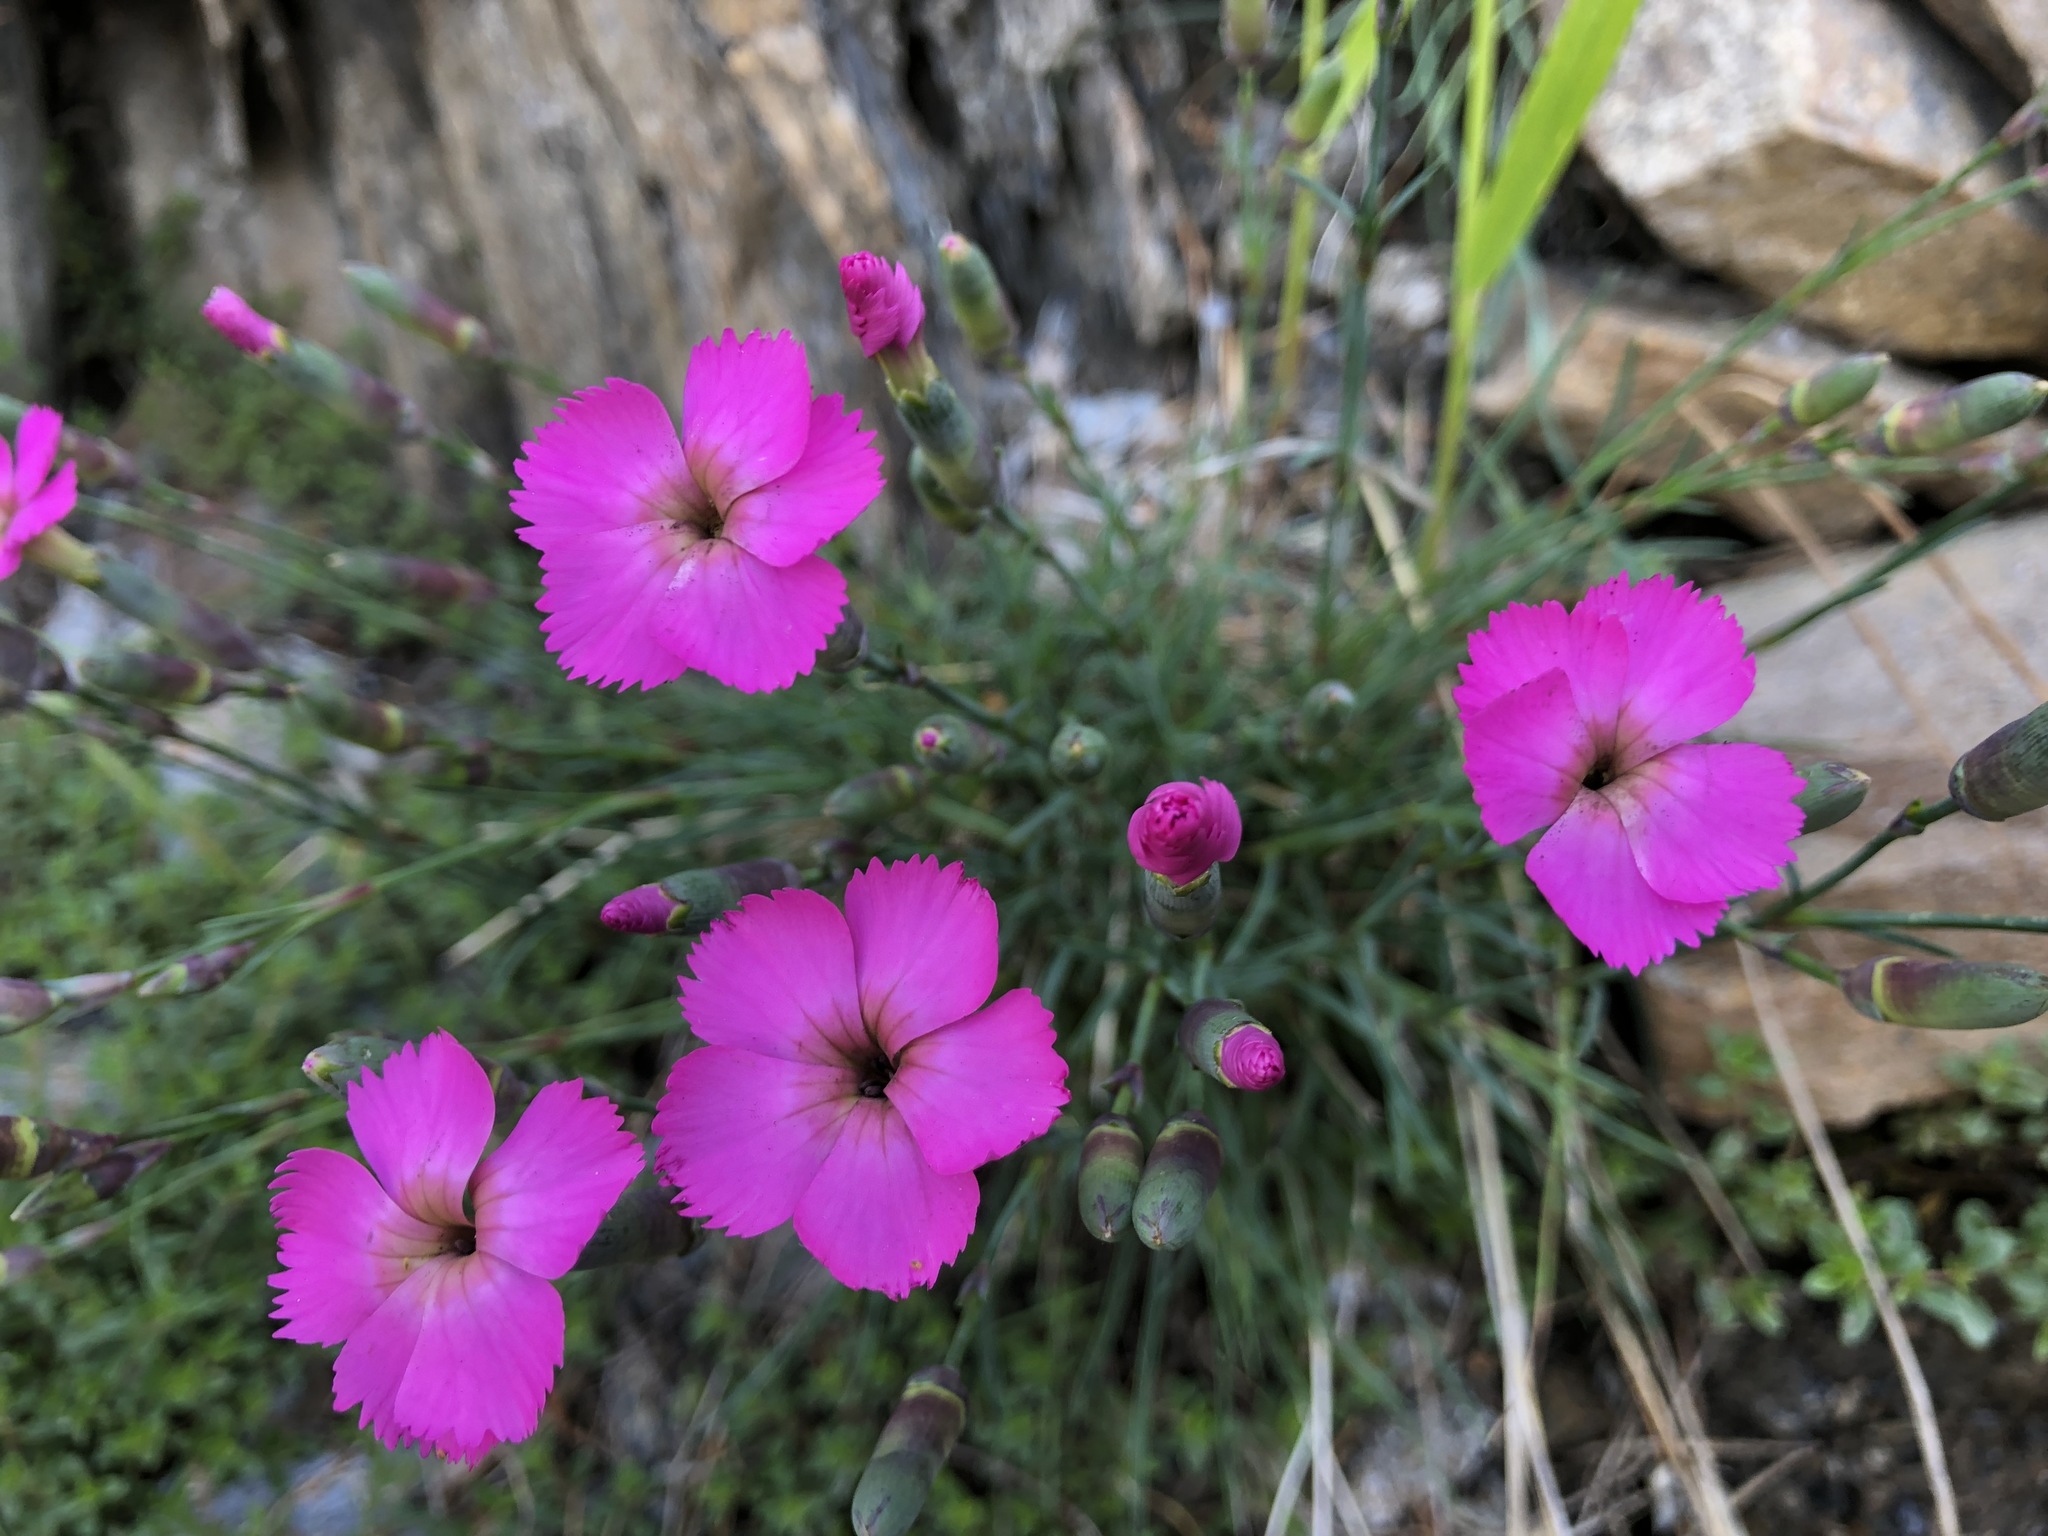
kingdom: Plantae
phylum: Tracheophyta
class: Magnoliopsida
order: Caryophyllales
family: Caryophyllaceae
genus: Dianthus
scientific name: Dianthus sylvestris
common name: Wood pink
